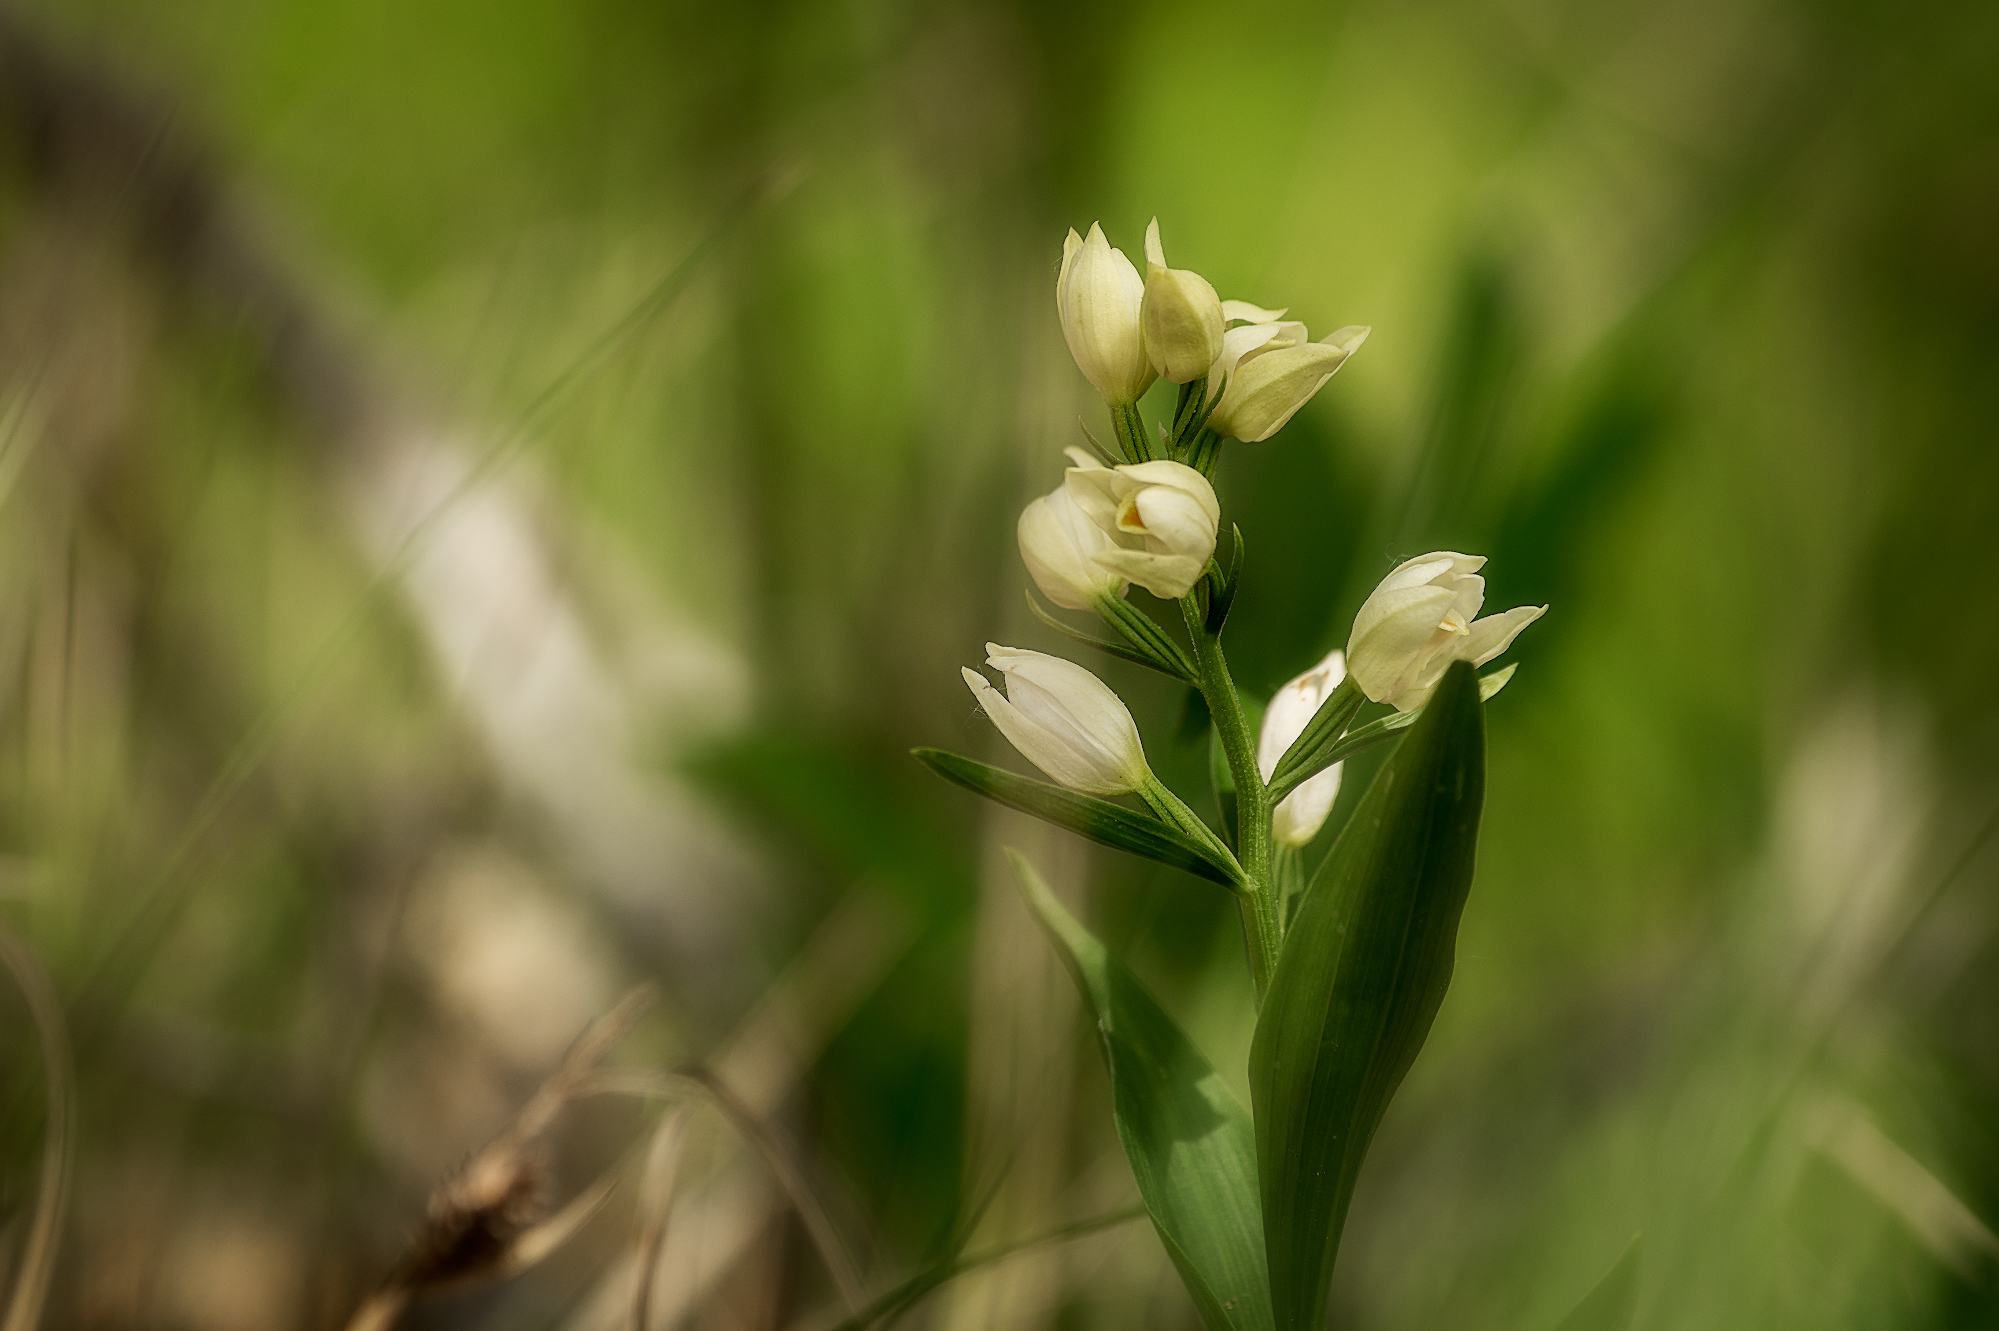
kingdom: Plantae
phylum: Tracheophyta
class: Liliopsida
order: Asparagales
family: Orchidaceae
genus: Cephalanthera
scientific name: Cephalanthera damasonium
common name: White helleborine
